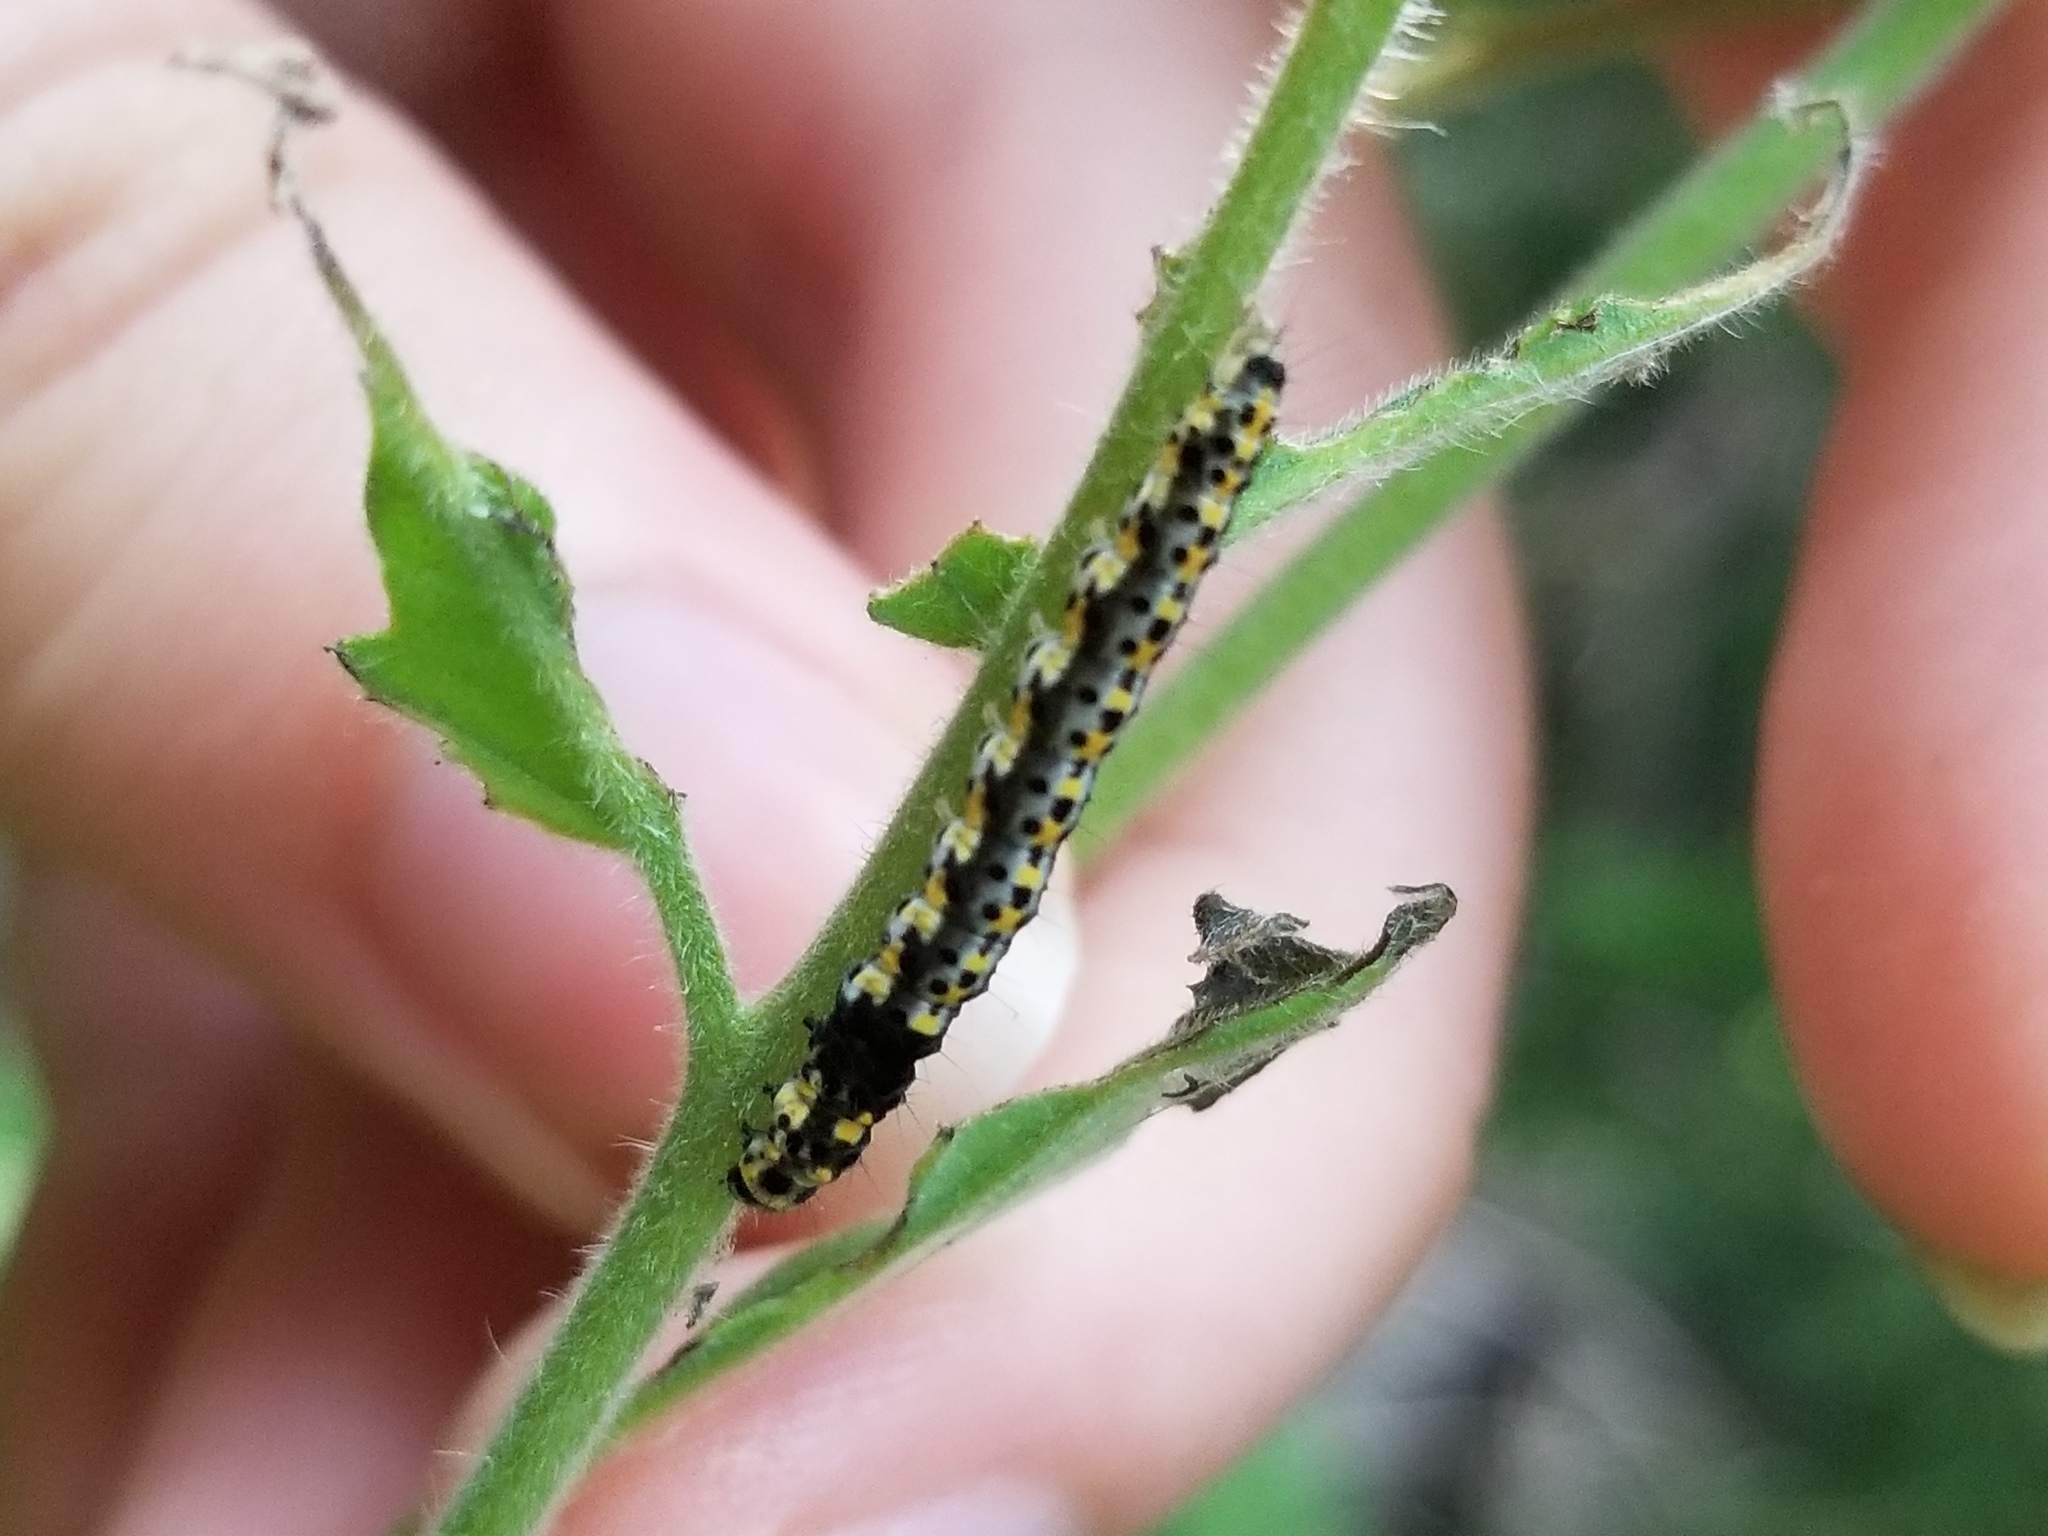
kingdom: Animalia
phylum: Arthropoda
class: Insecta
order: Lepidoptera
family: Ethmiidae
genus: Ethmia
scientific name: Ethmia zelleriella
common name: Zeller's ethmia
